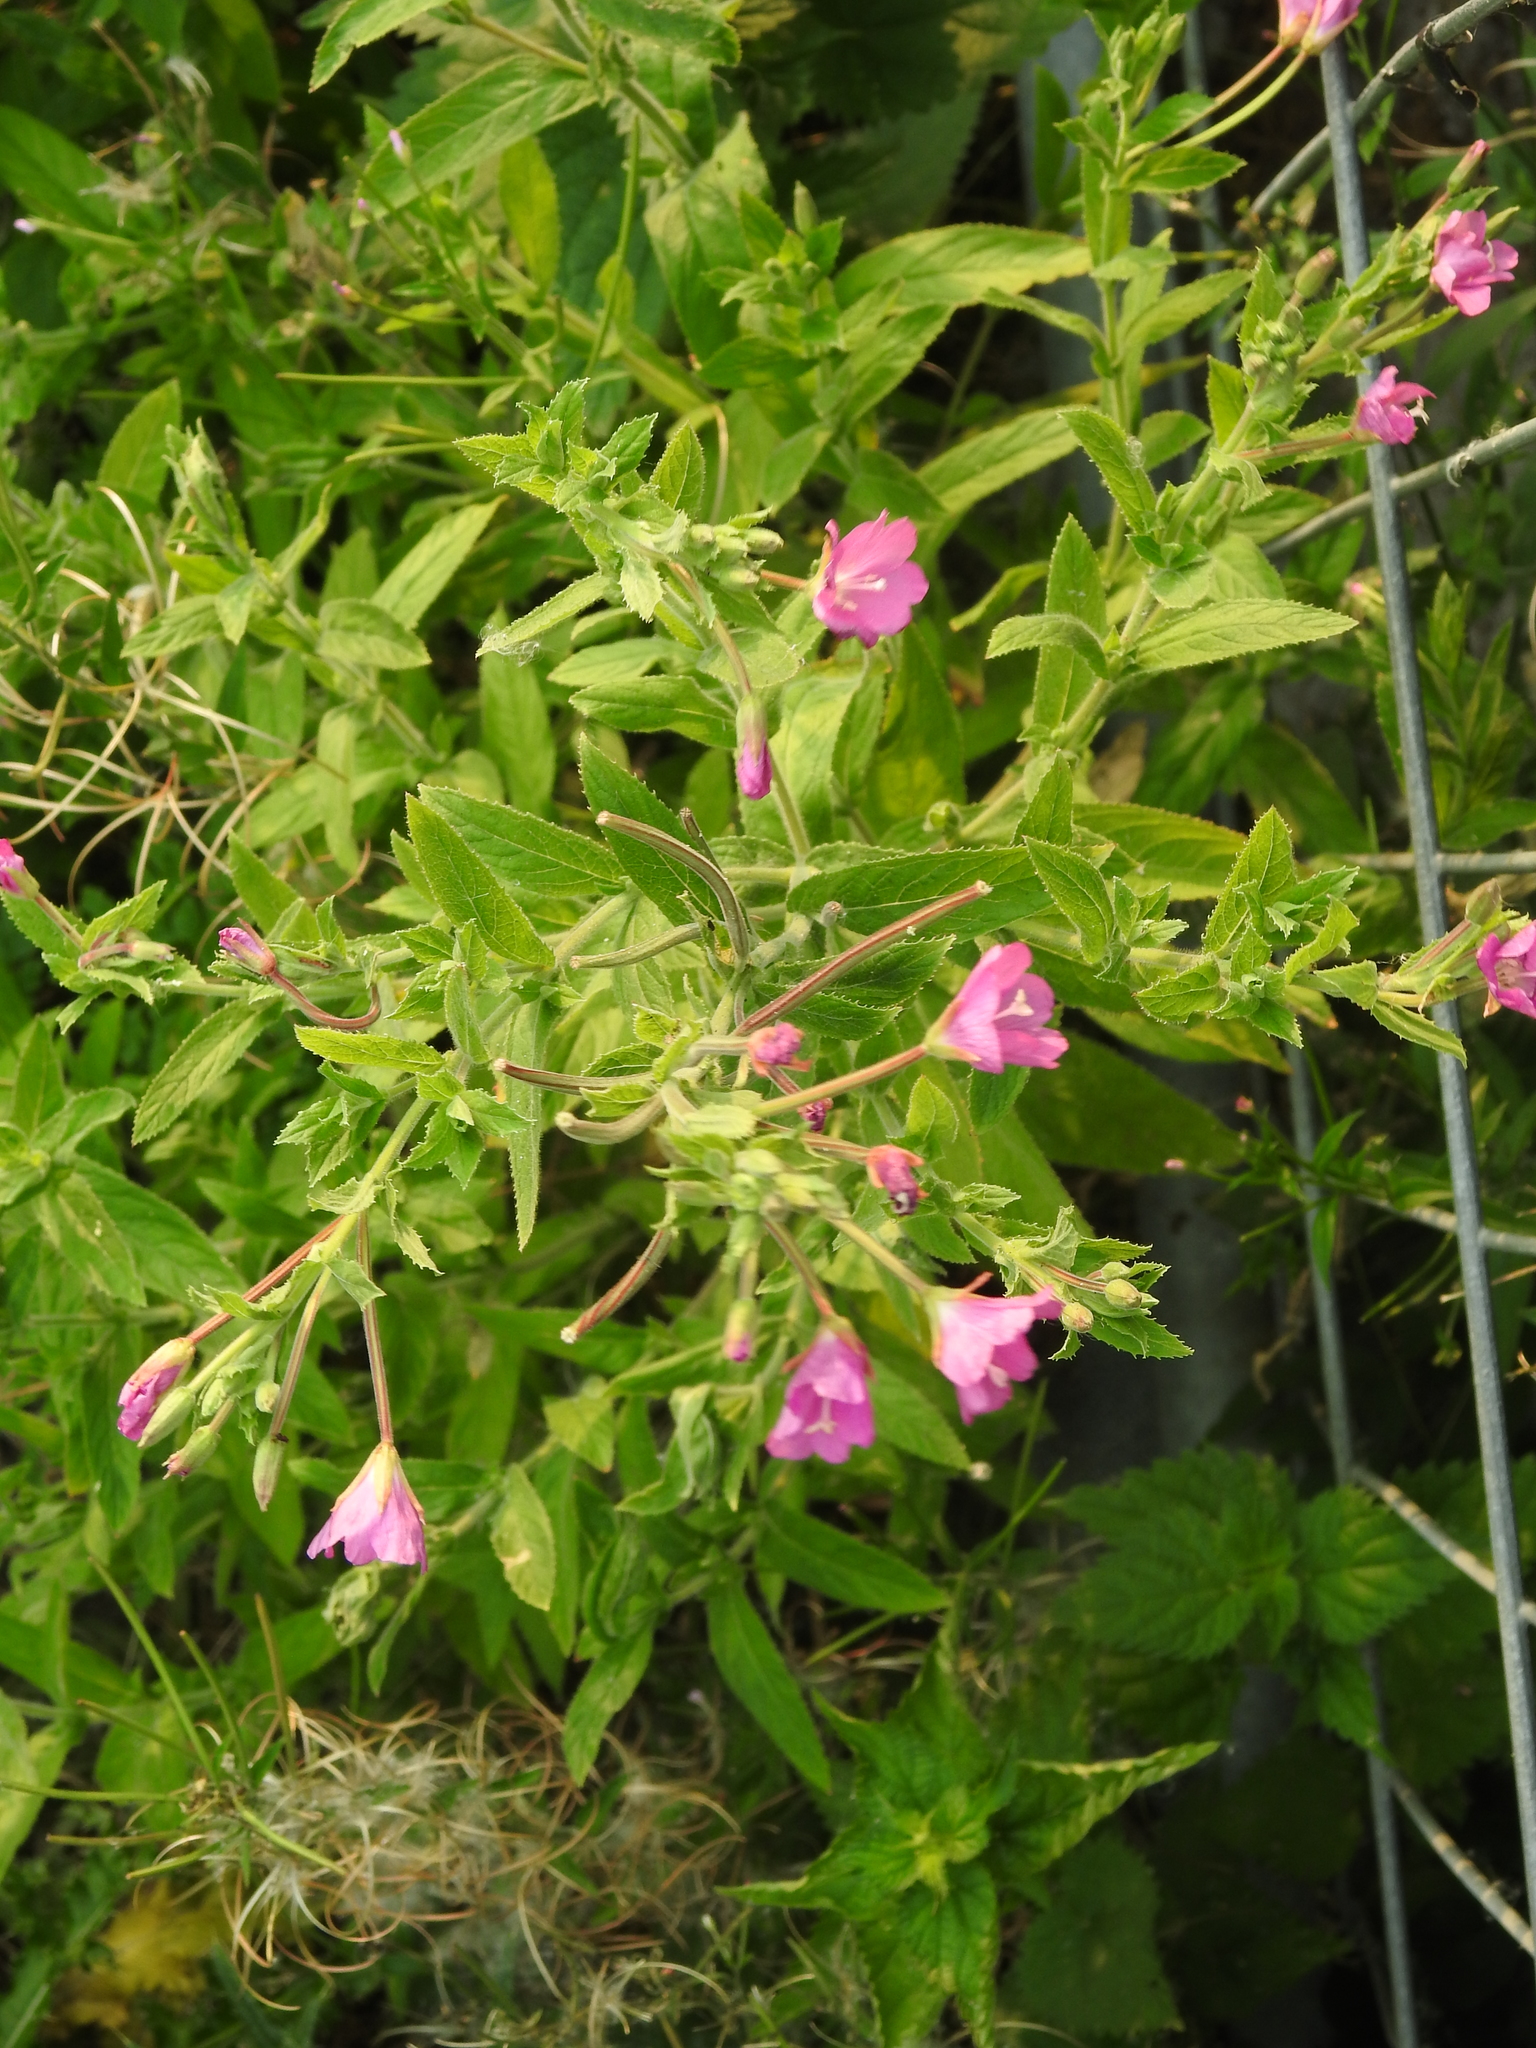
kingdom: Plantae
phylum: Tracheophyta
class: Magnoliopsida
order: Myrtales
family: Onagraceae
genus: Epilobium
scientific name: Epilobium hirsutum
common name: Great willowherb
